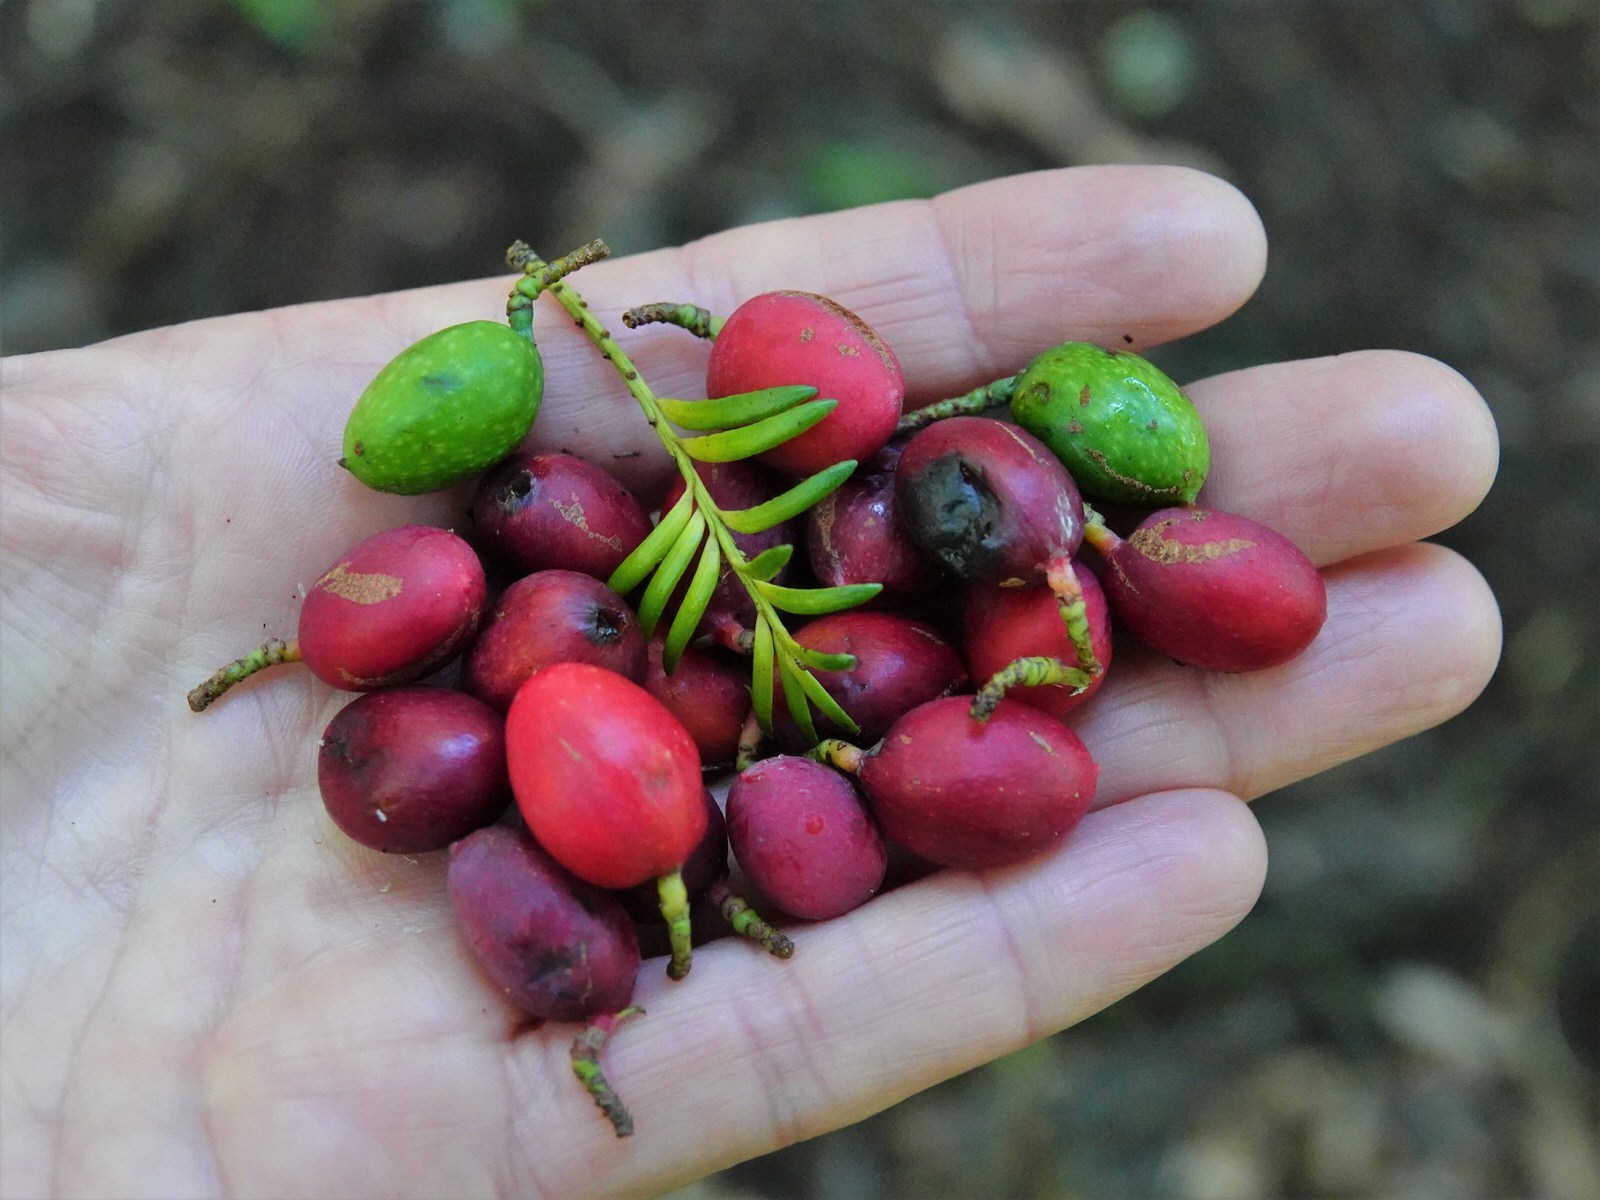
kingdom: Plantae
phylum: Tracheophyta
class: Pinopsida
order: Pinales
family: Podocarpaceae
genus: Prumnopitys
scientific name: Prumnopitys ferruginea
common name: Brown pine
